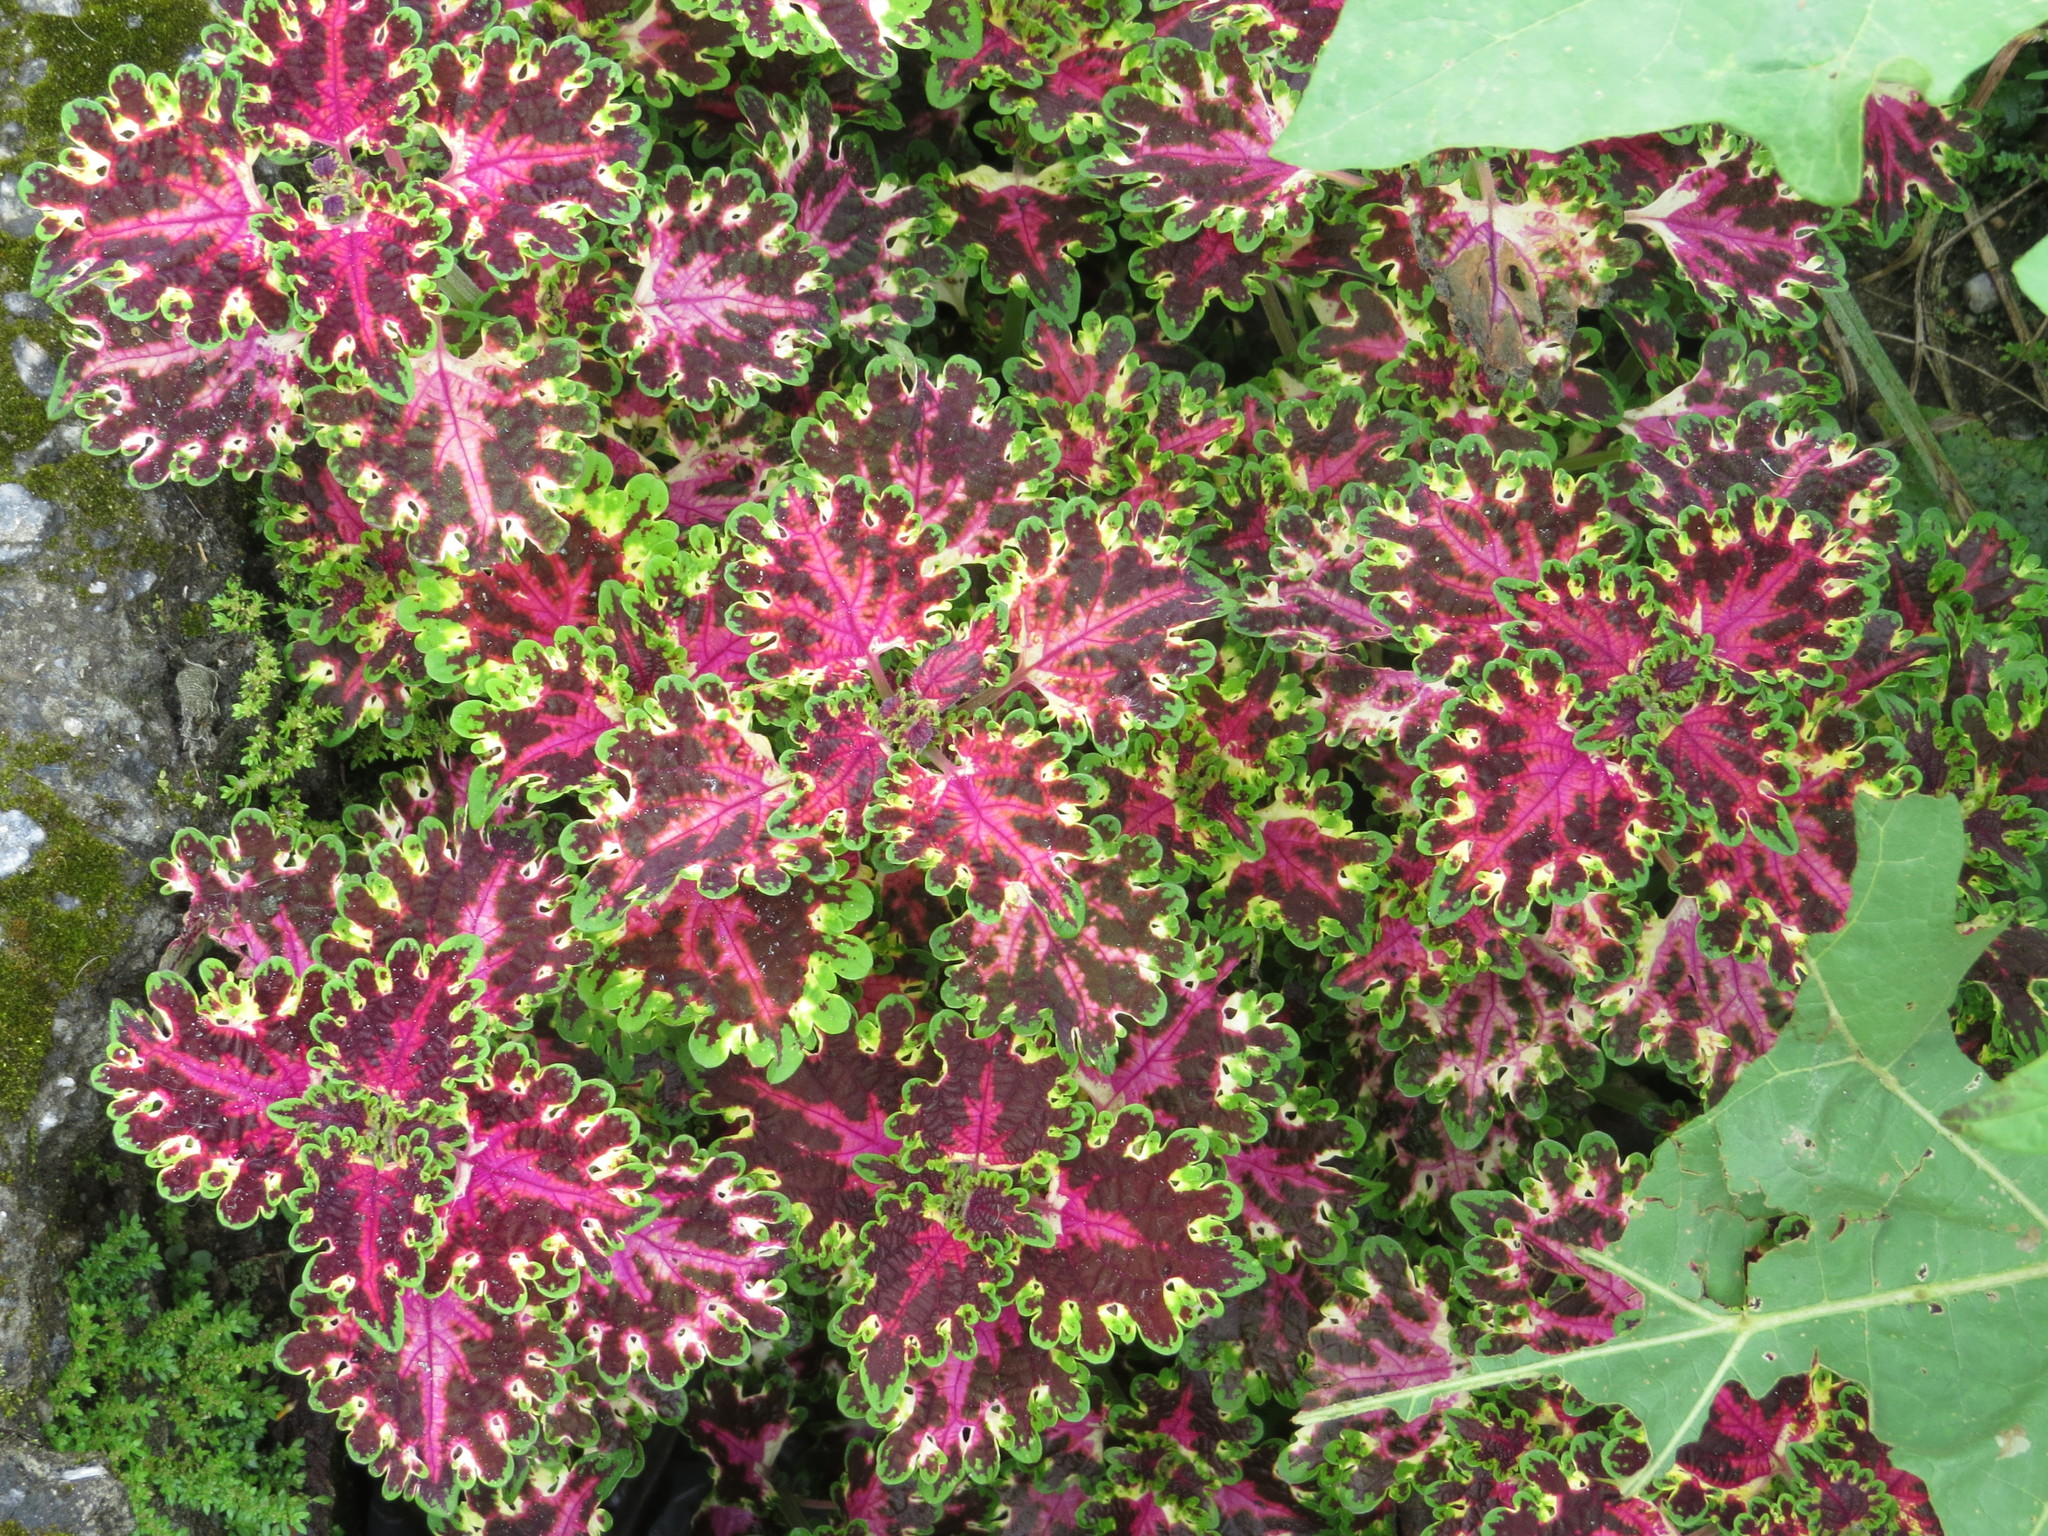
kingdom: Plantae
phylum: Tracheophyta
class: Magnoliopsida
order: Lamiales
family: Lamiaceae
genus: Coleus
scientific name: Coleus scutellarioides
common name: Coleus
